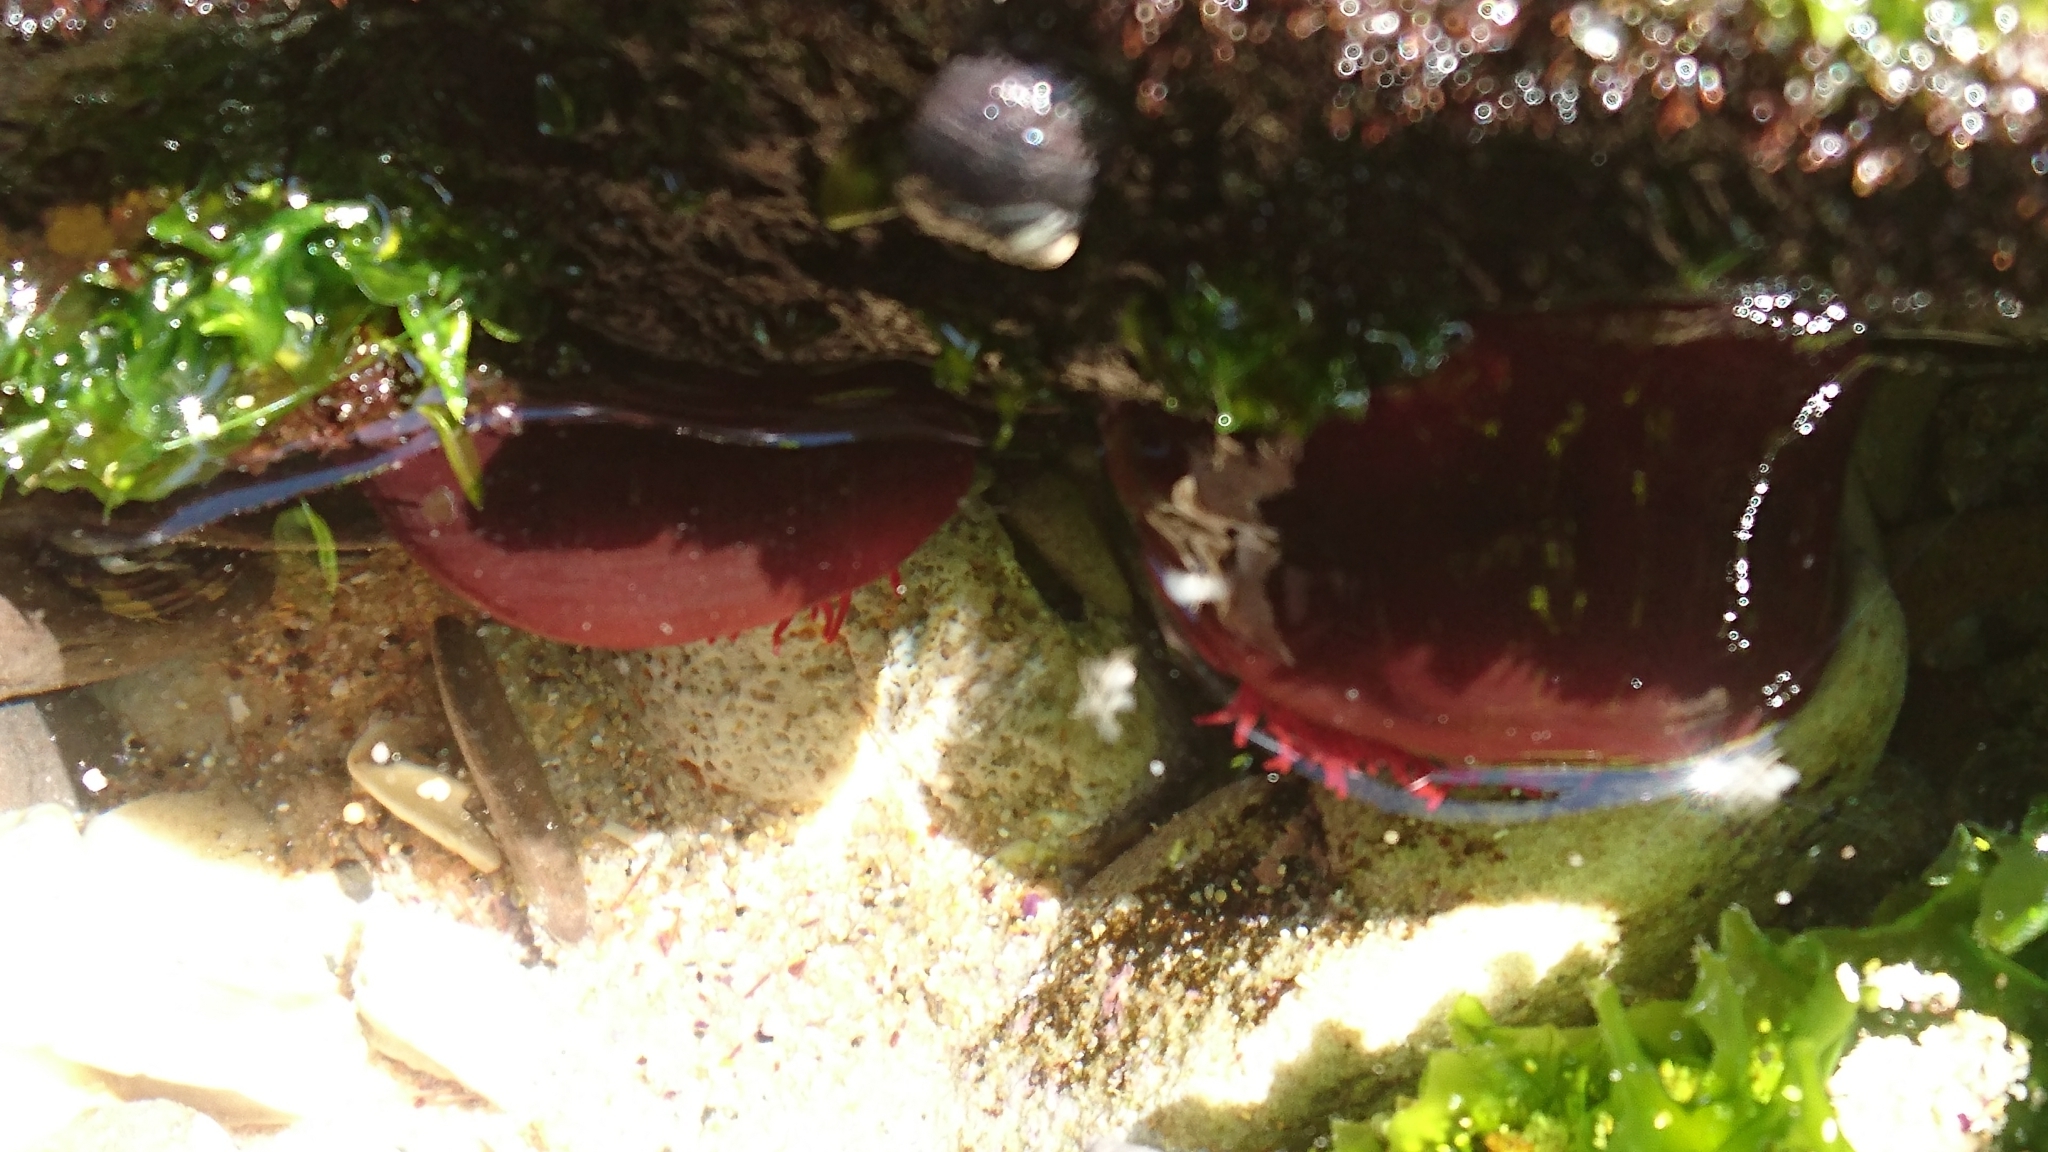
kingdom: Animalia
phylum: Cnidaria
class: Anthozoa
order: Actiniaria
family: Actiniidae
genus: Actinia
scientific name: Actinia tenebrosa
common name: Waratah anemone
